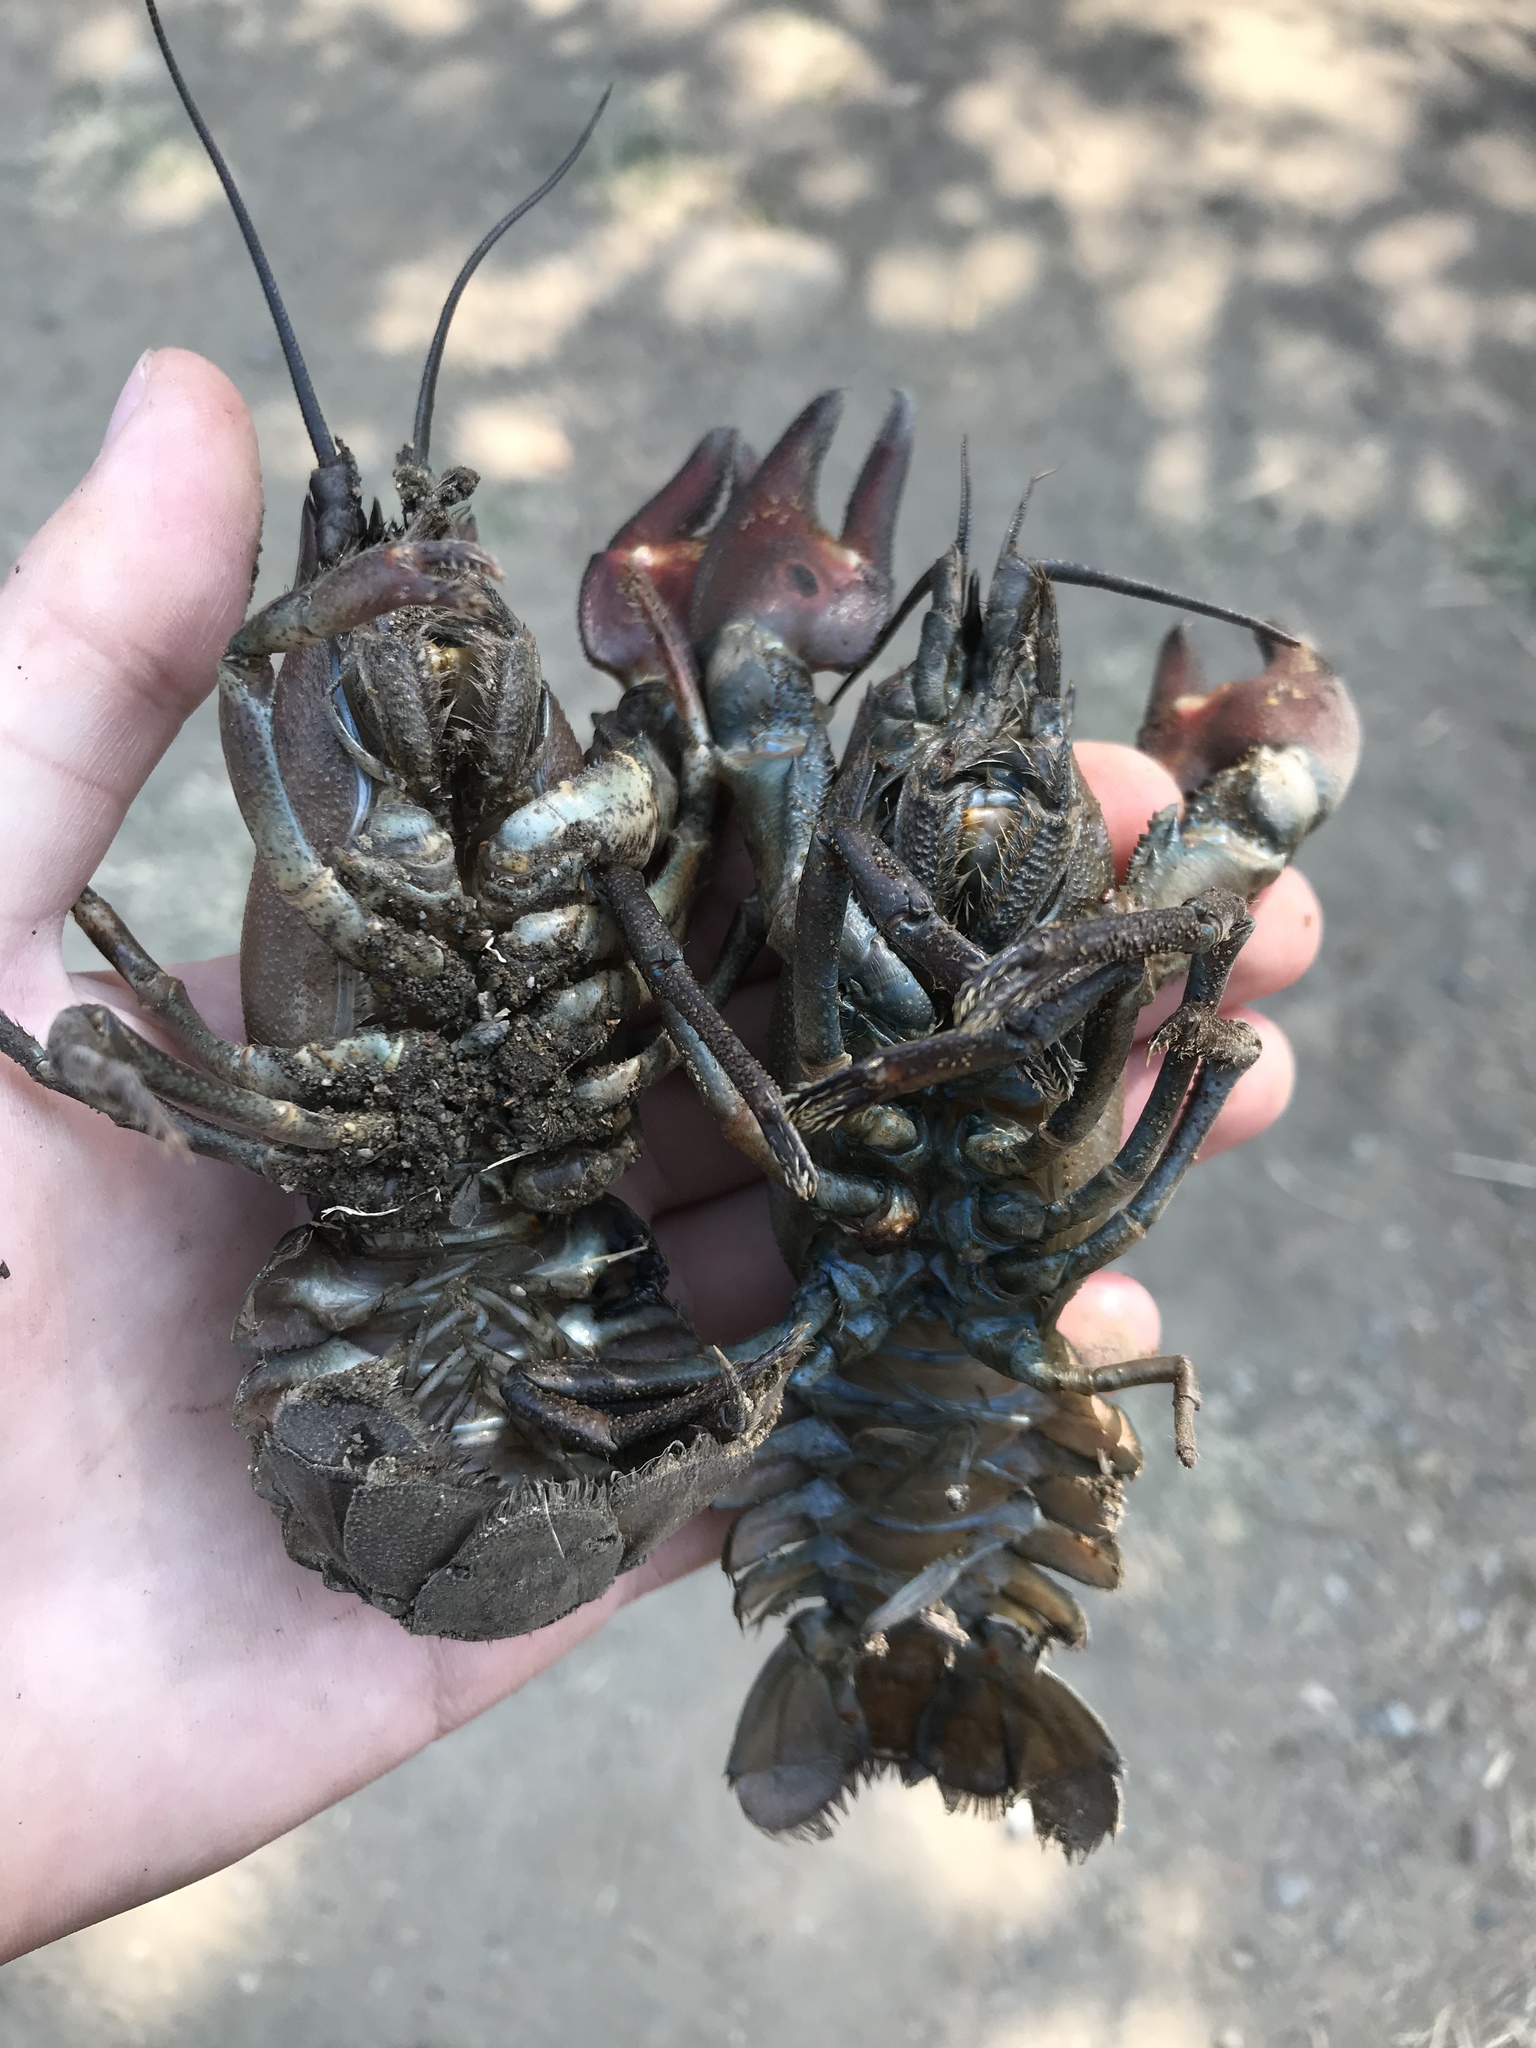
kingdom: Animalia
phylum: Arthropoda
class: Malacostraca
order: Decapoda
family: Astacidae
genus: Pacifastacus
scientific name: Pacifastacus leniusculus
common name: Signal crayfish
